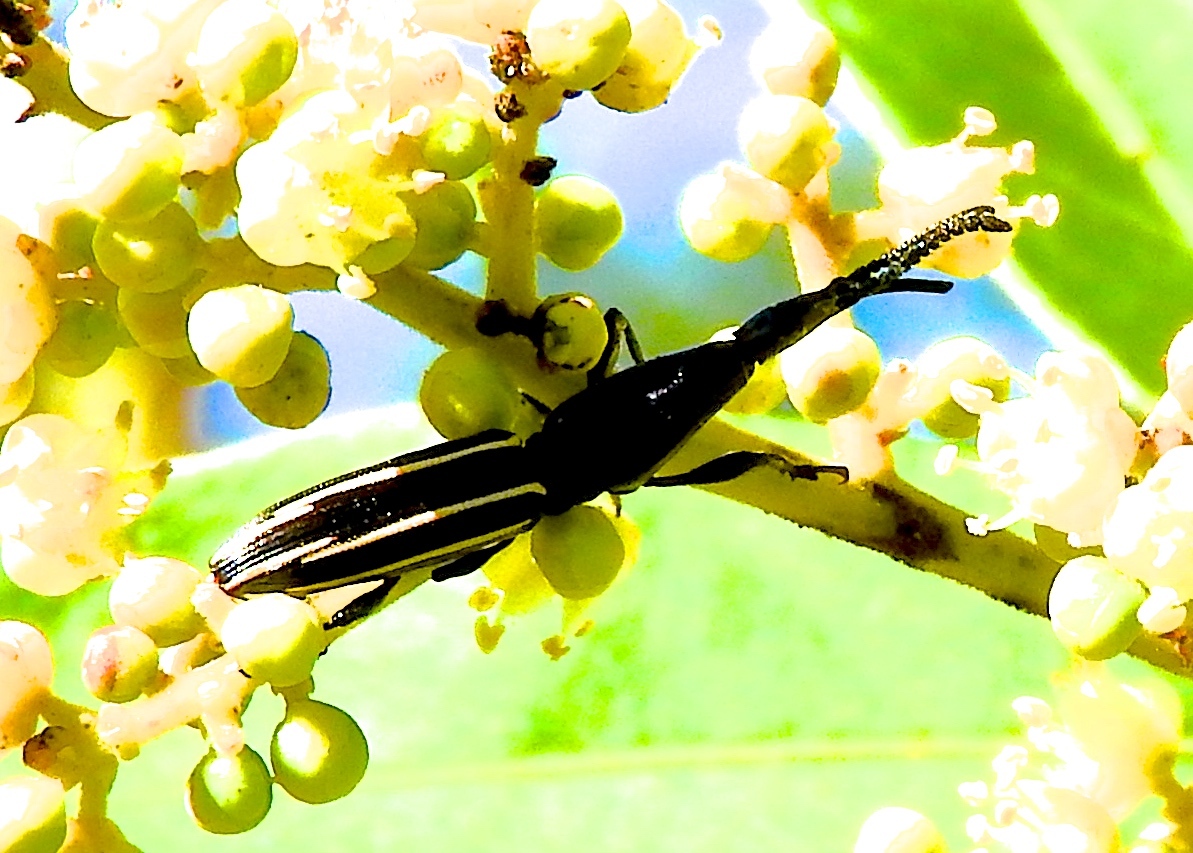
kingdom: Animalia
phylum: Arthropoda
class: Insecta
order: Coleoptera
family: Brentidae
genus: Brentus
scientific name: Brentus
